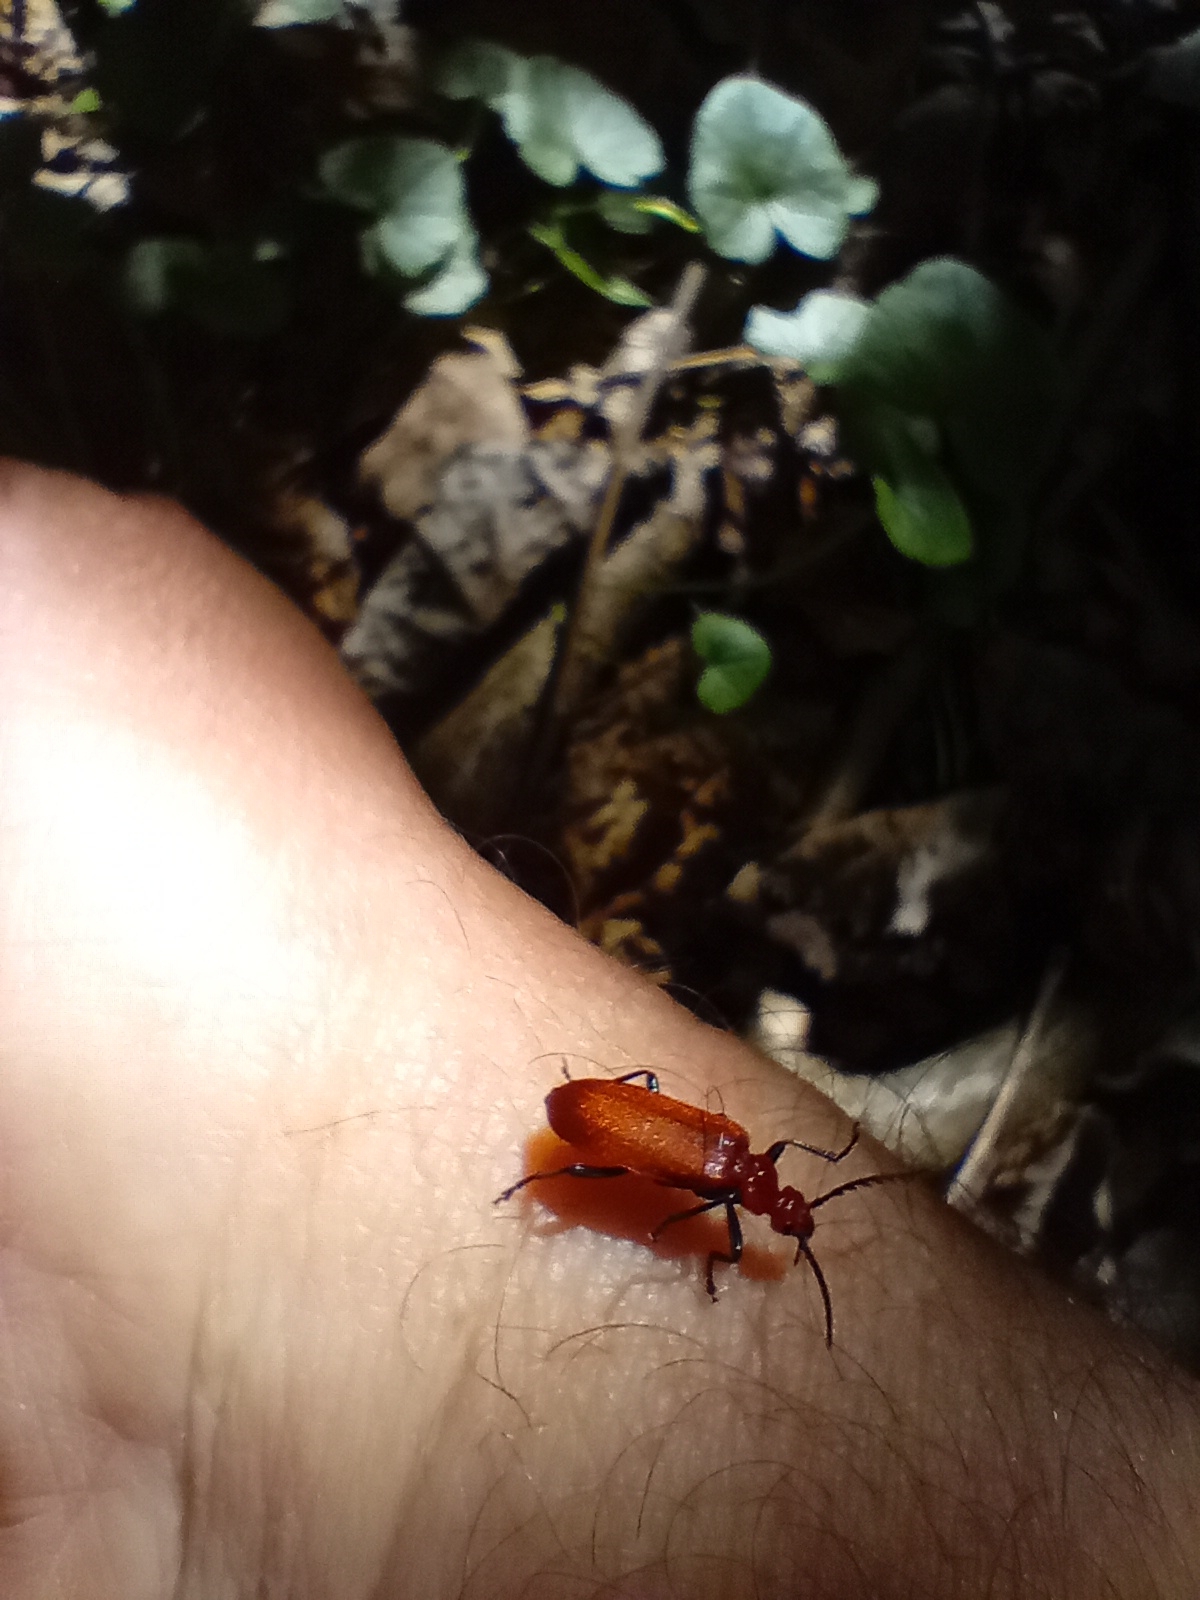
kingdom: Animalia
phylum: Arthropoda
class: Insecta
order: Coleoptera
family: Pyrochroidae
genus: Pyrochroa
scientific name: Pyrochroa serraticornis
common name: Red-headed cardinal beetle
